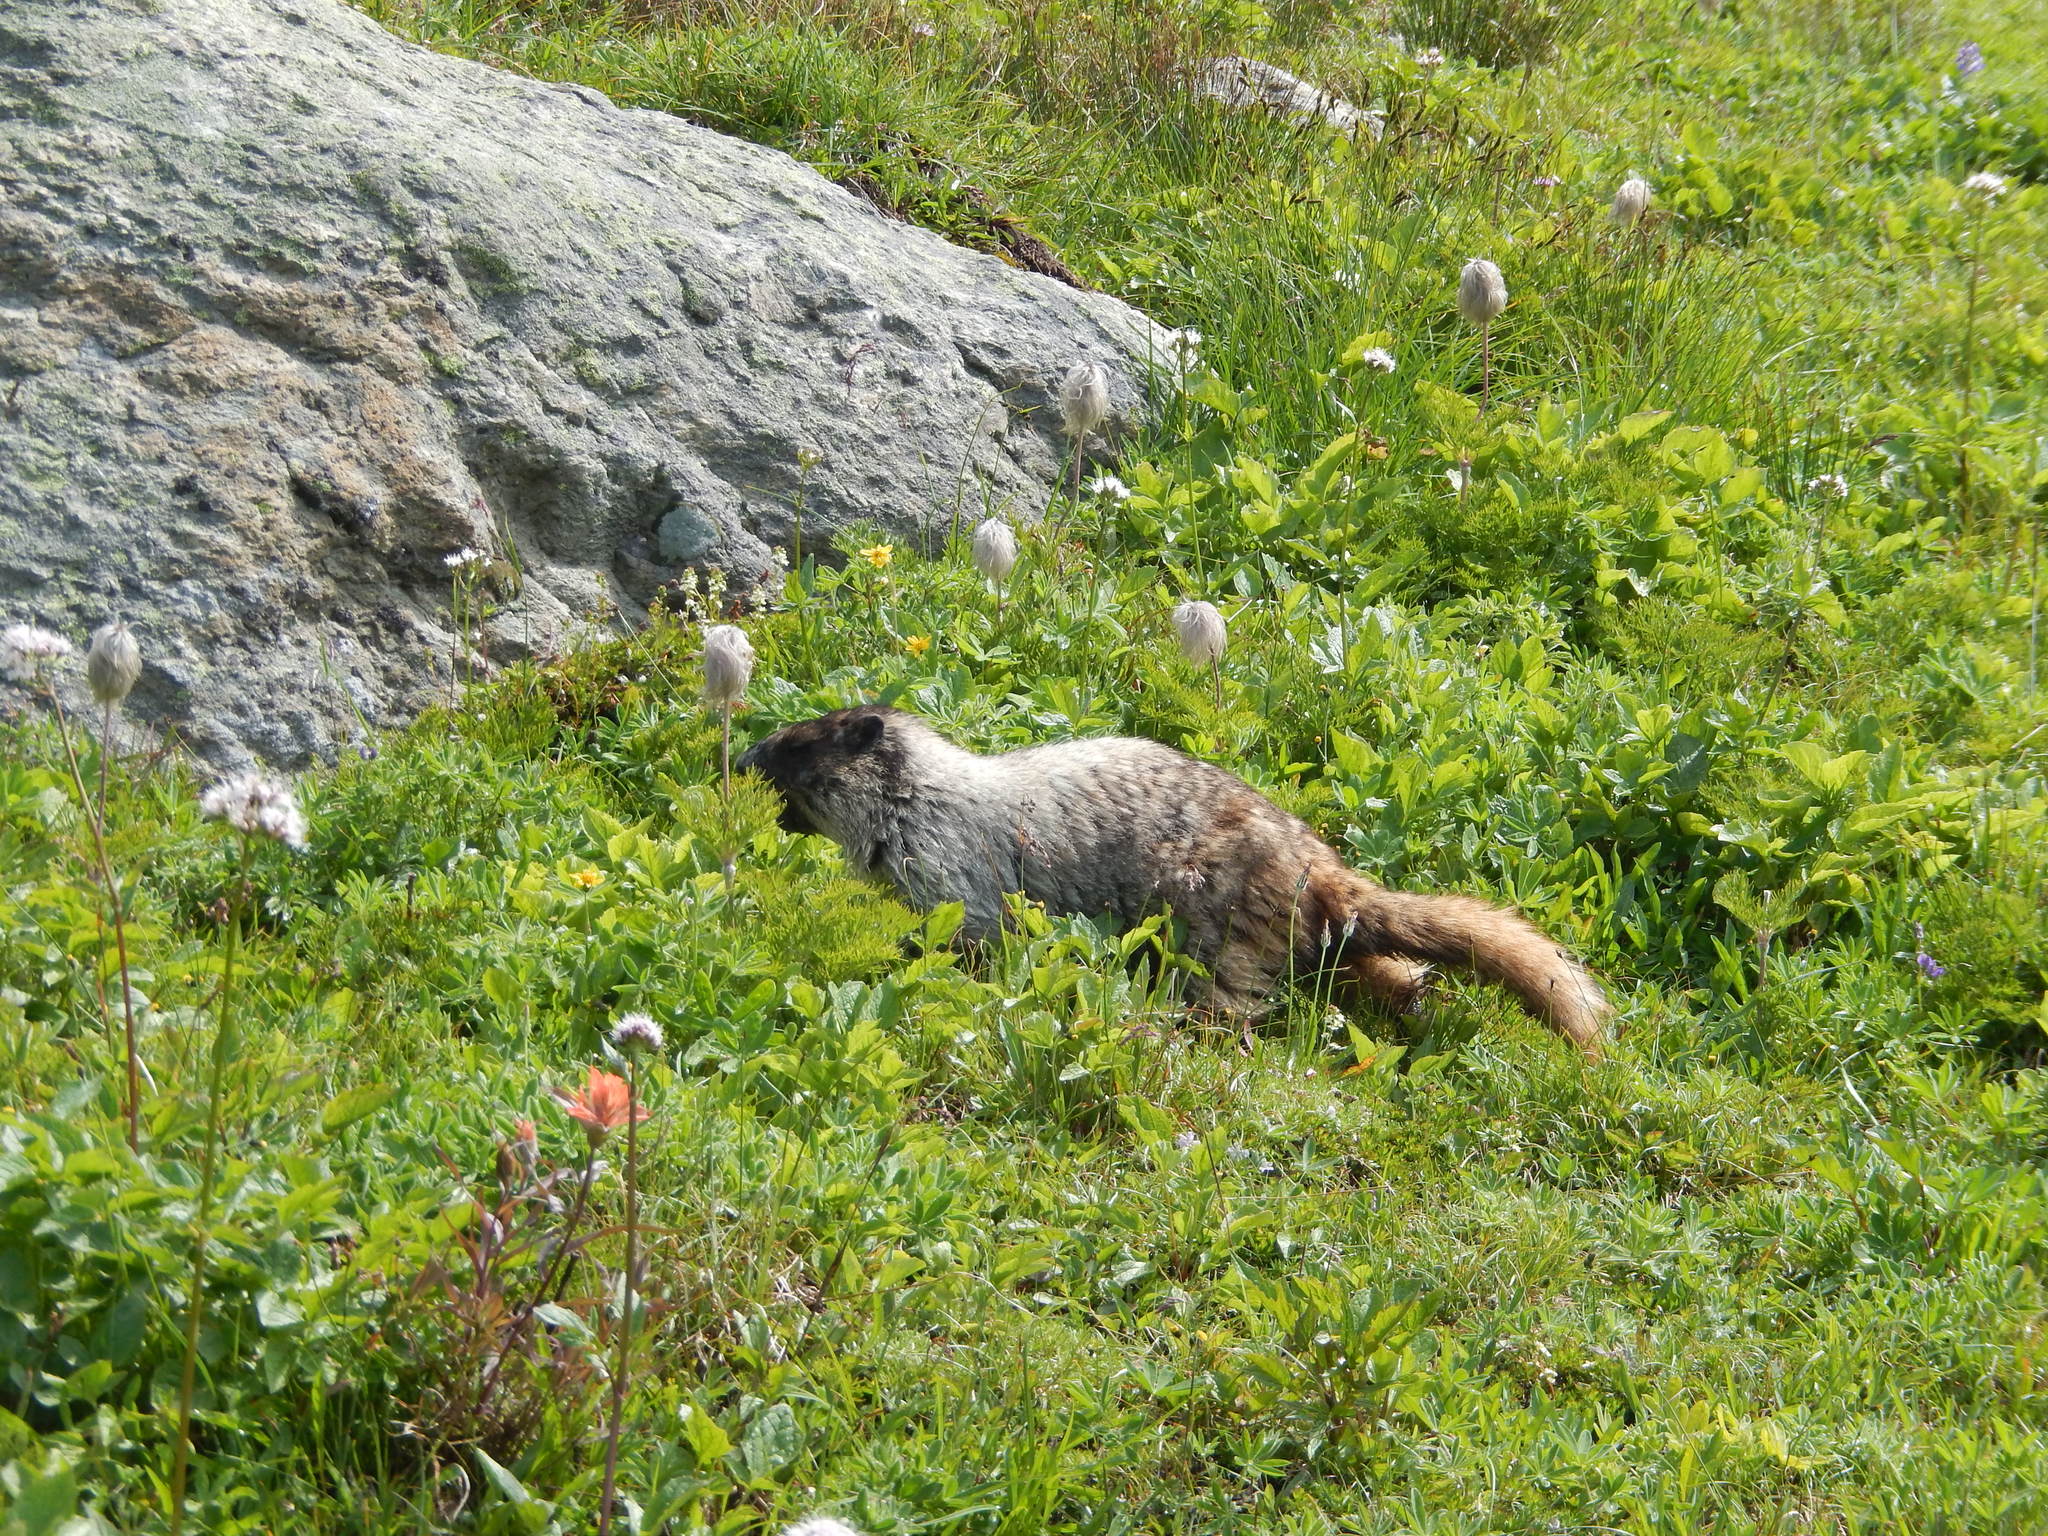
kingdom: Animalia
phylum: Chordata
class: Mammalia
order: Rodentia
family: Sciuridae
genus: Marmota
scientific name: Marmota caligata
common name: Hoary marmot
